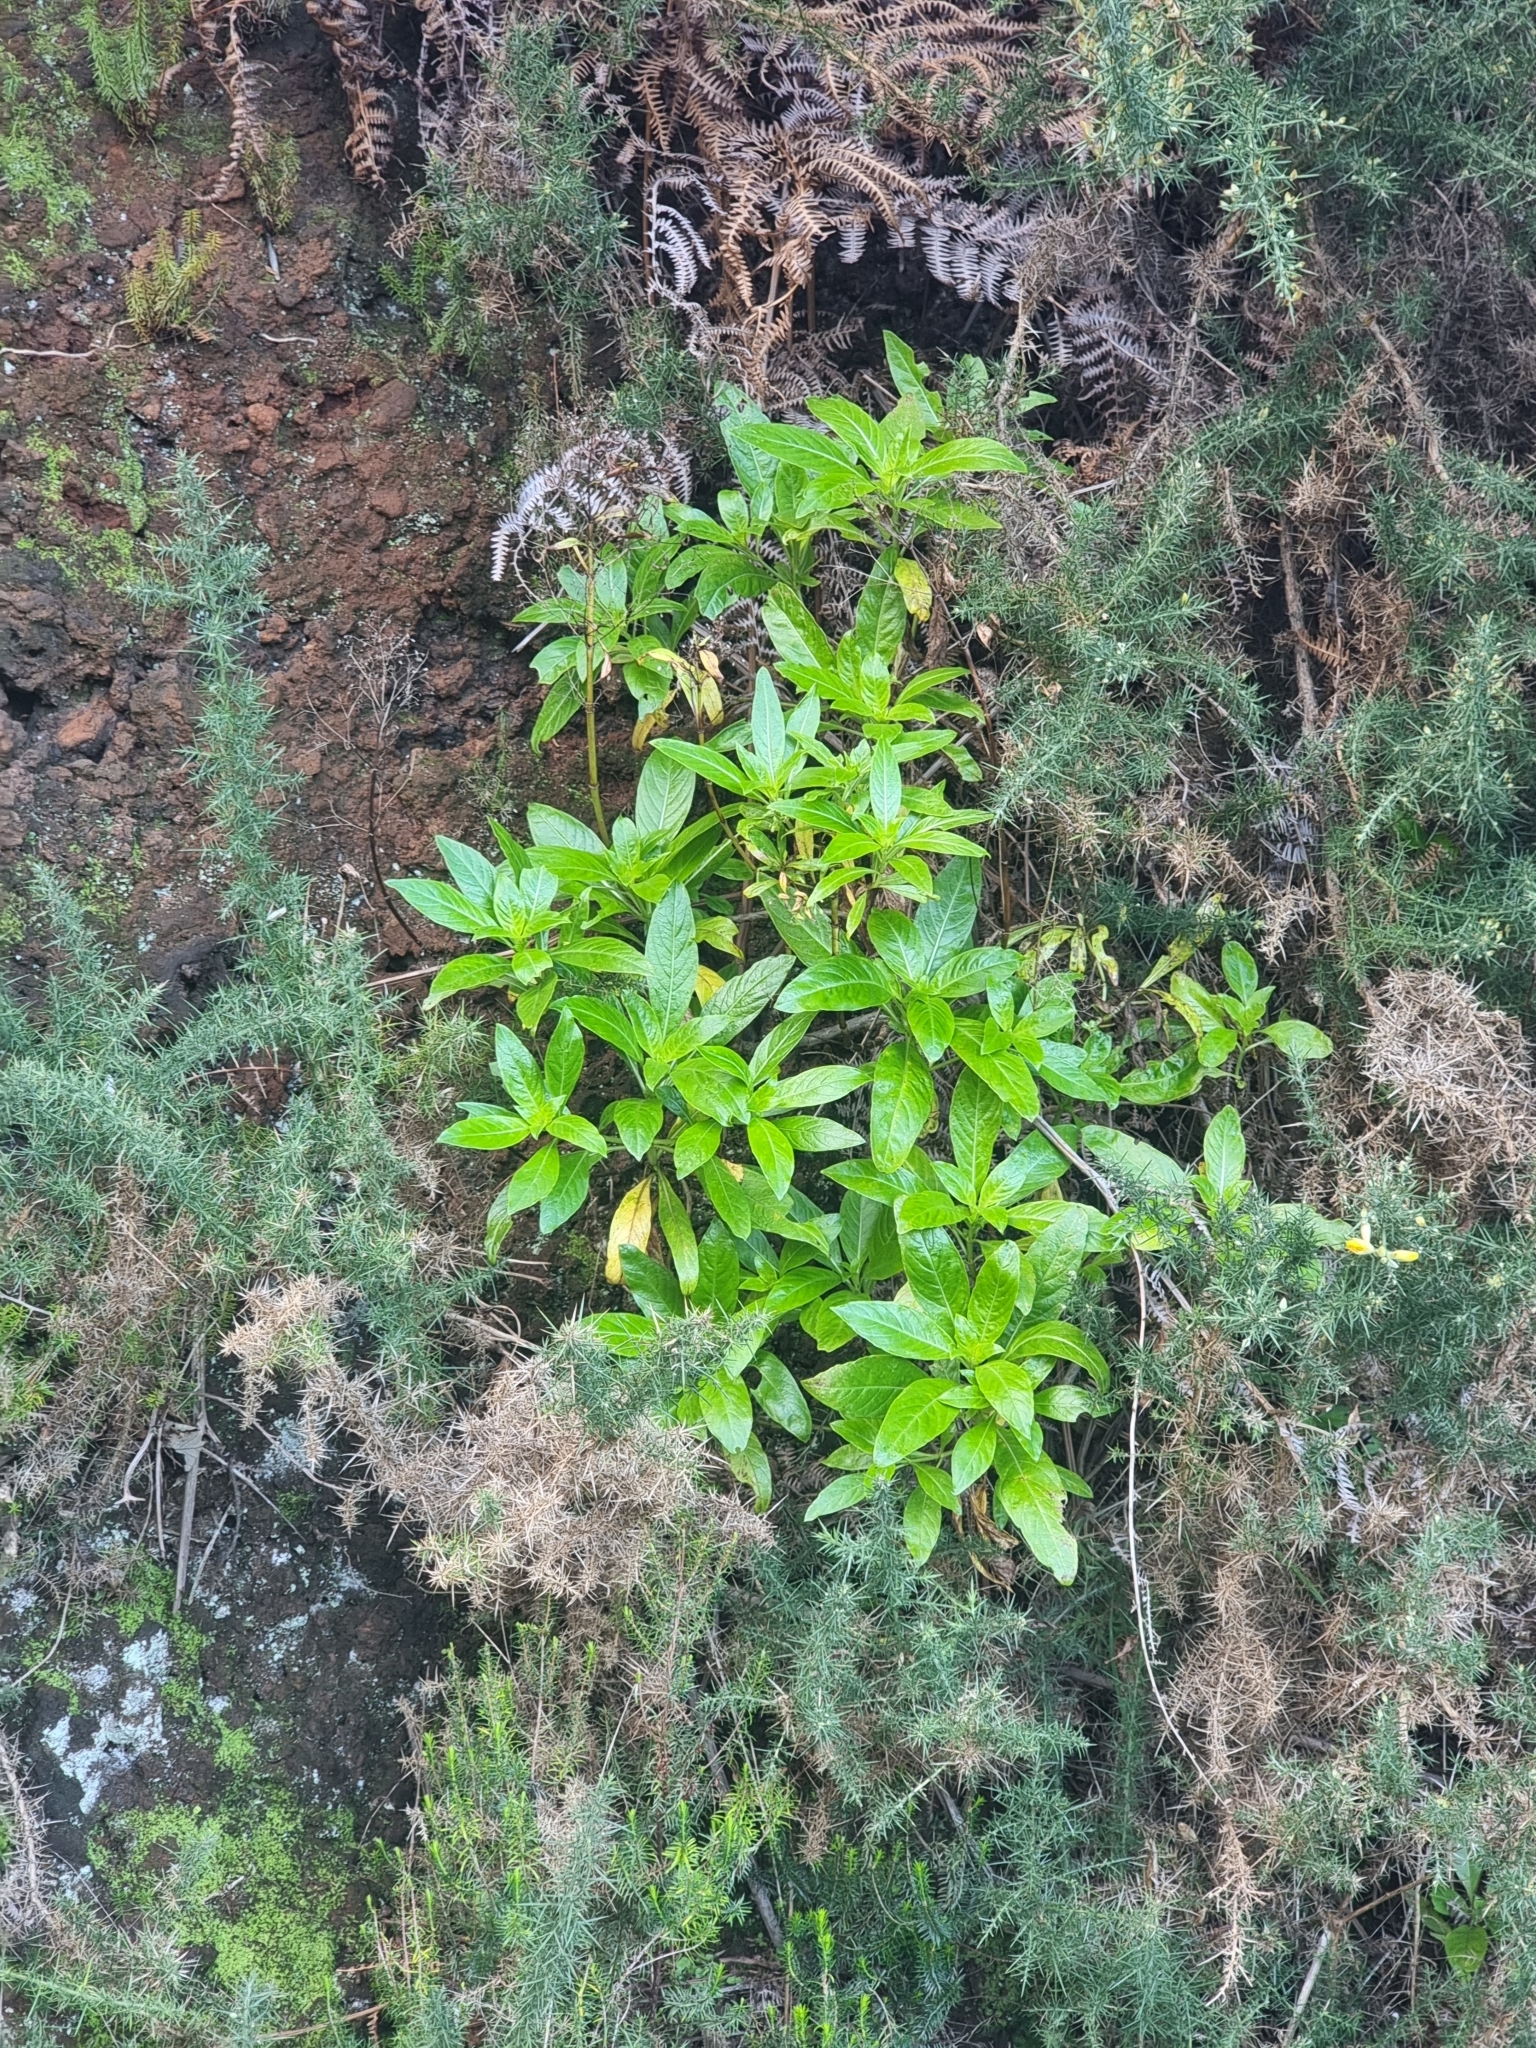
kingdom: Plantae
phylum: Tracheophyta
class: Magnoliopsida
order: Gentianales
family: Rubiaceae
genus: Phyllis
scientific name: Phyllis nobla
